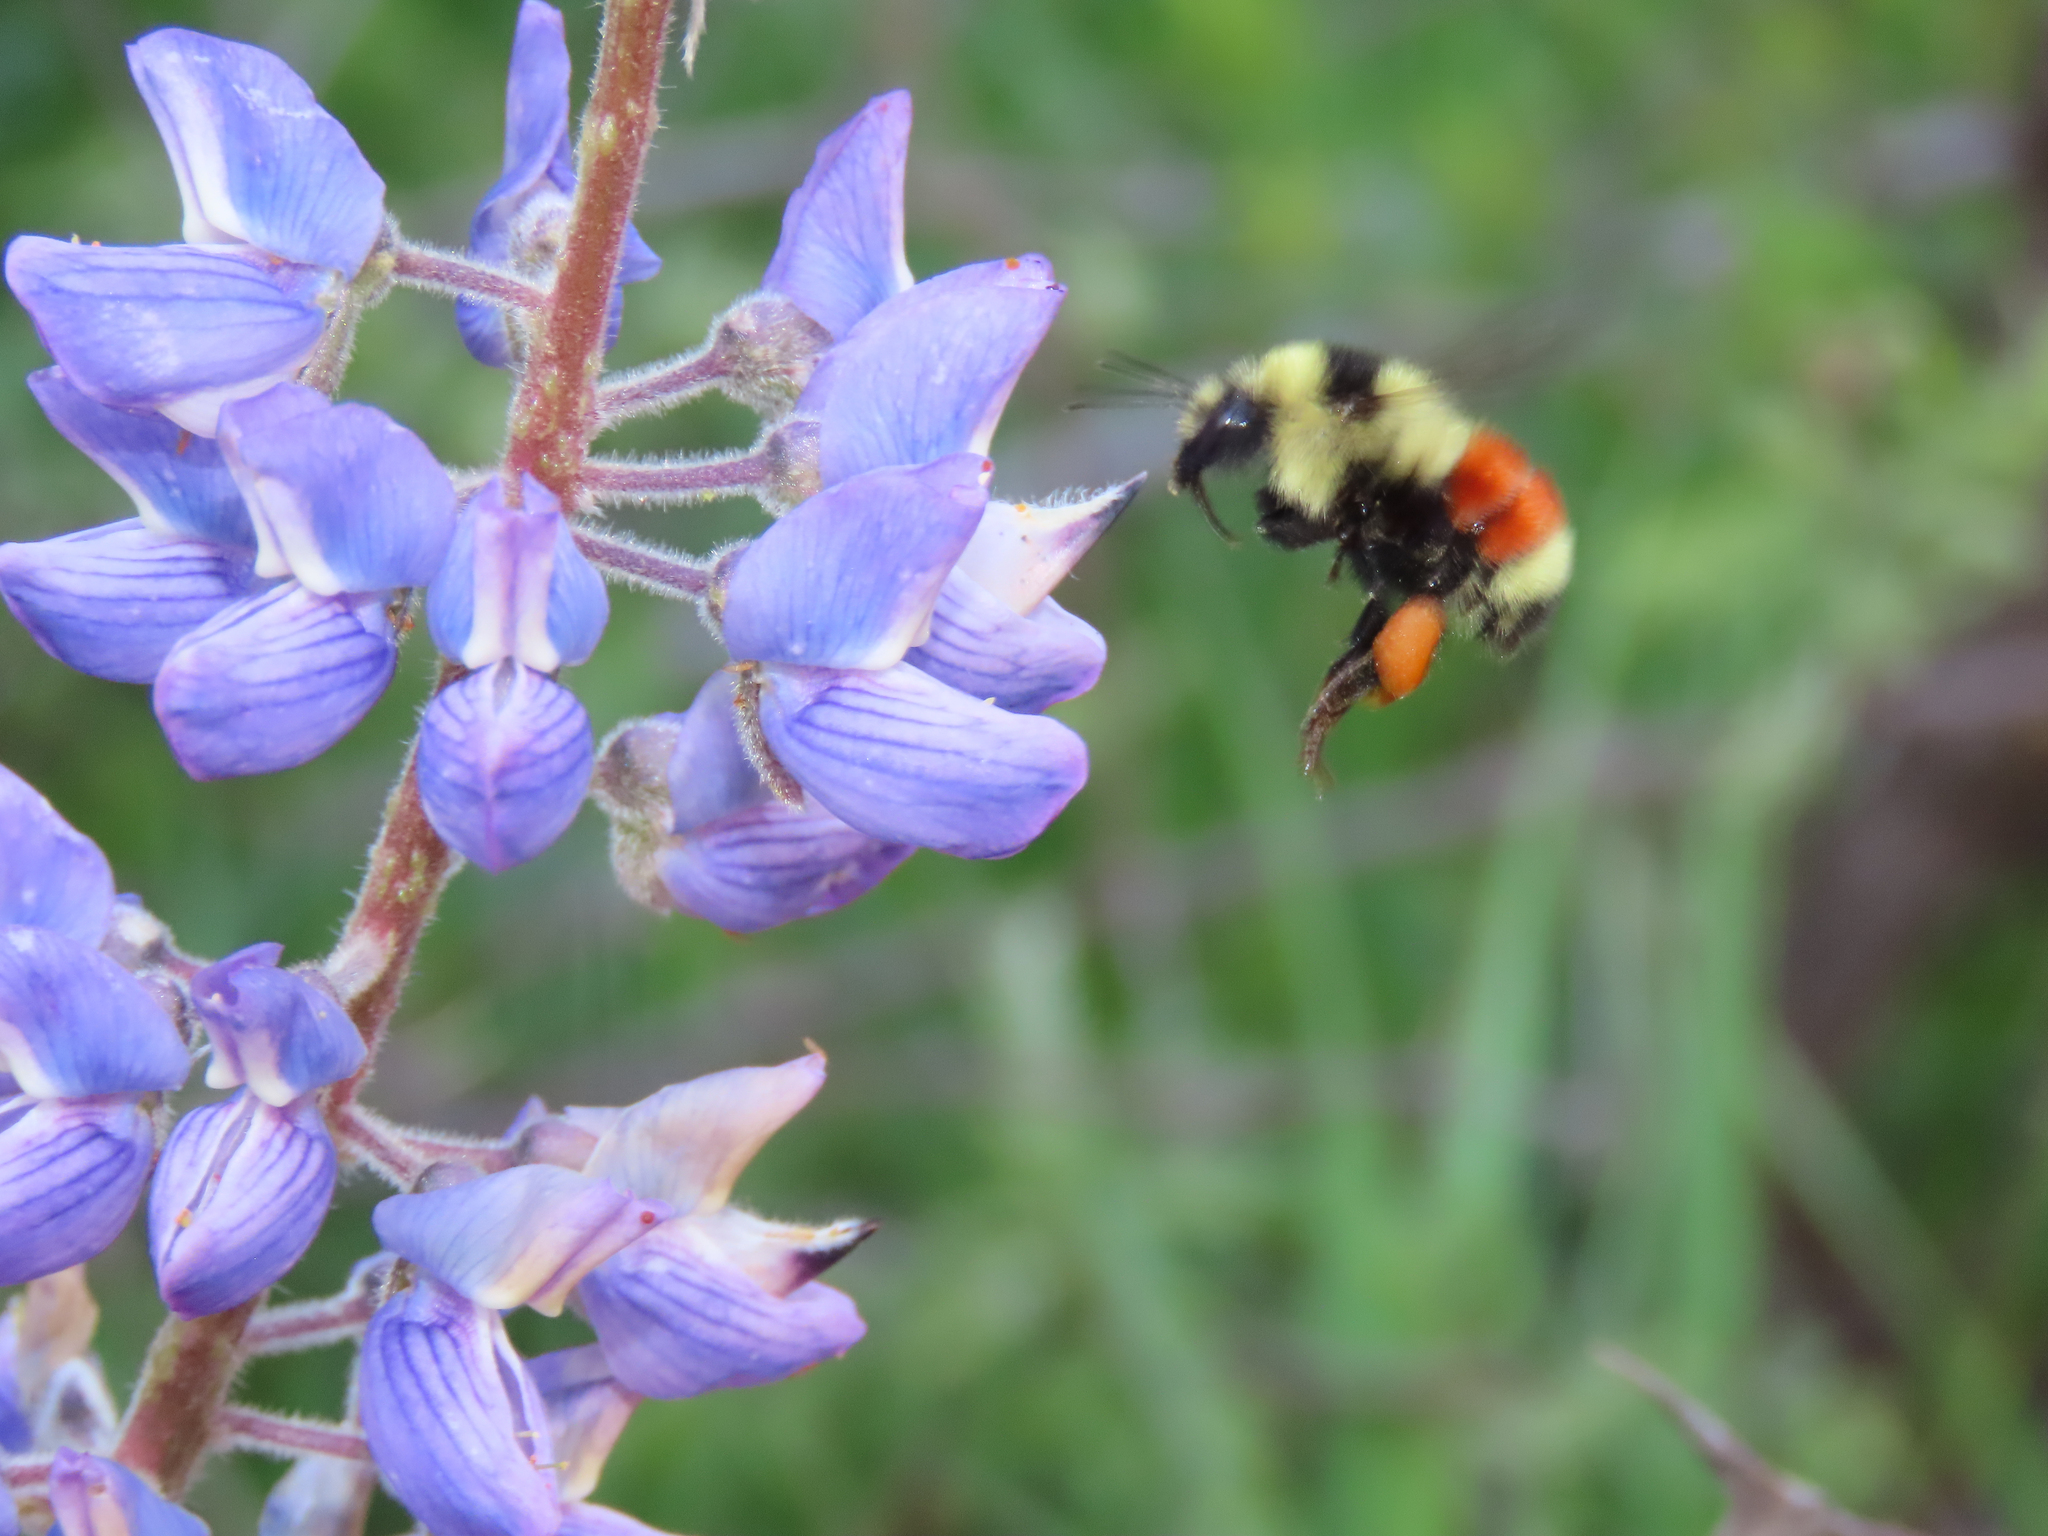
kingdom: Animalia
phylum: Arthropoda
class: Insecta
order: Hymenoptera
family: Apidae
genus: Bombus
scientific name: Bombus huntii
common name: Hunt bumble bee
